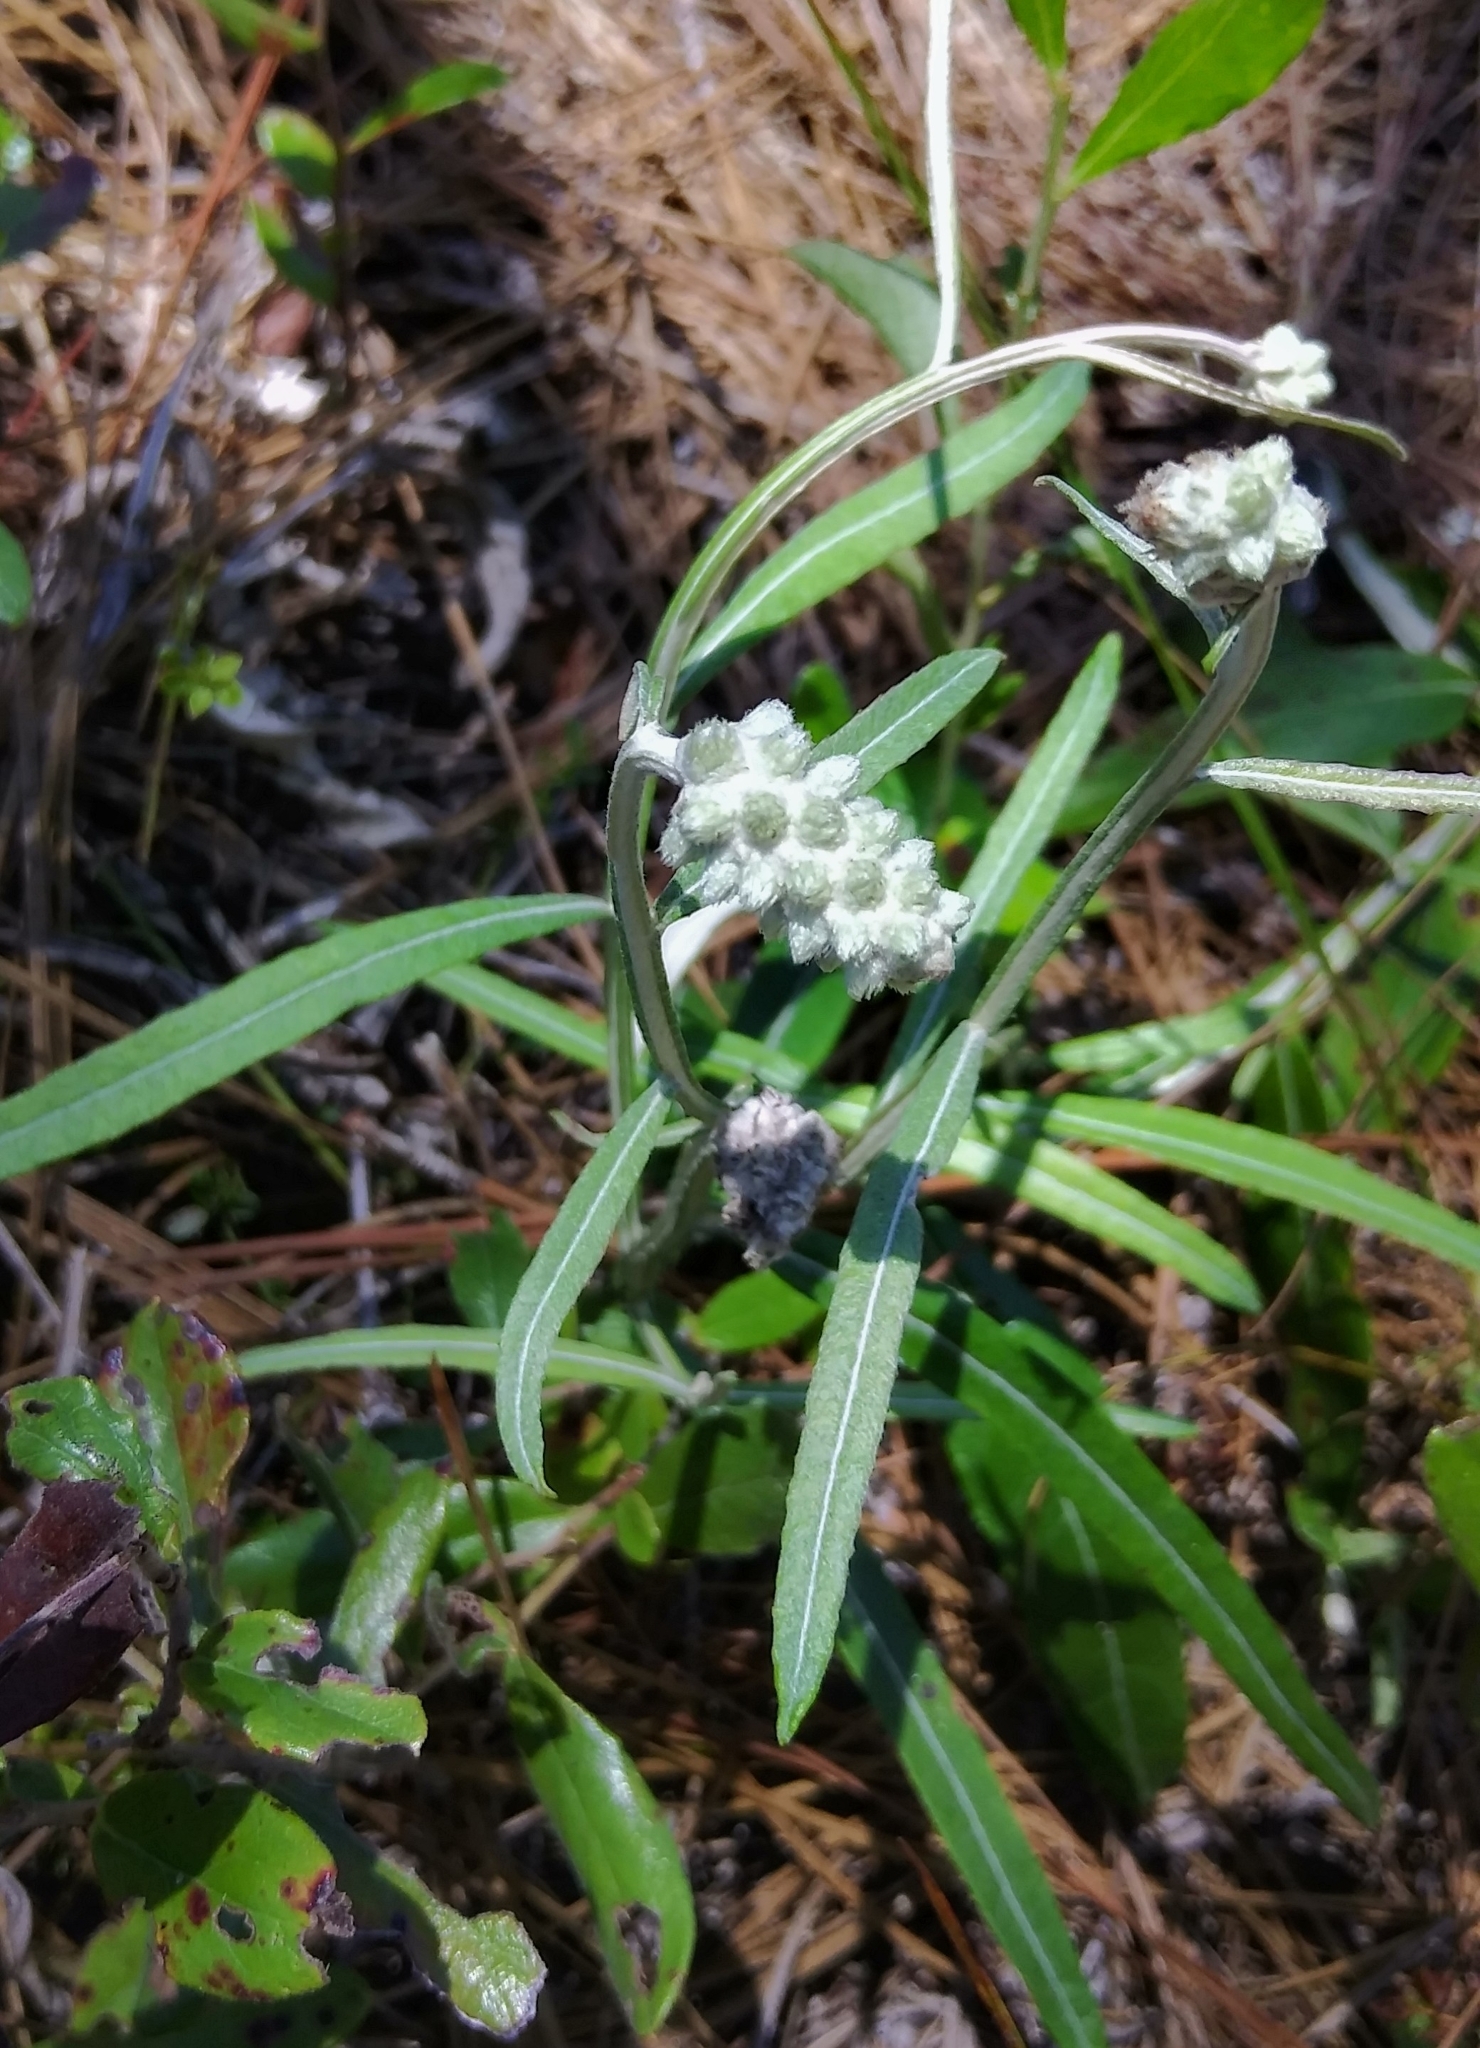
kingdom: Plantae
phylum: Tracheophyta
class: Magnoliopsida
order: Asterales
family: Asteraceae
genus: Pterocaulon
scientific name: Pterocaulon pycnostachyum
